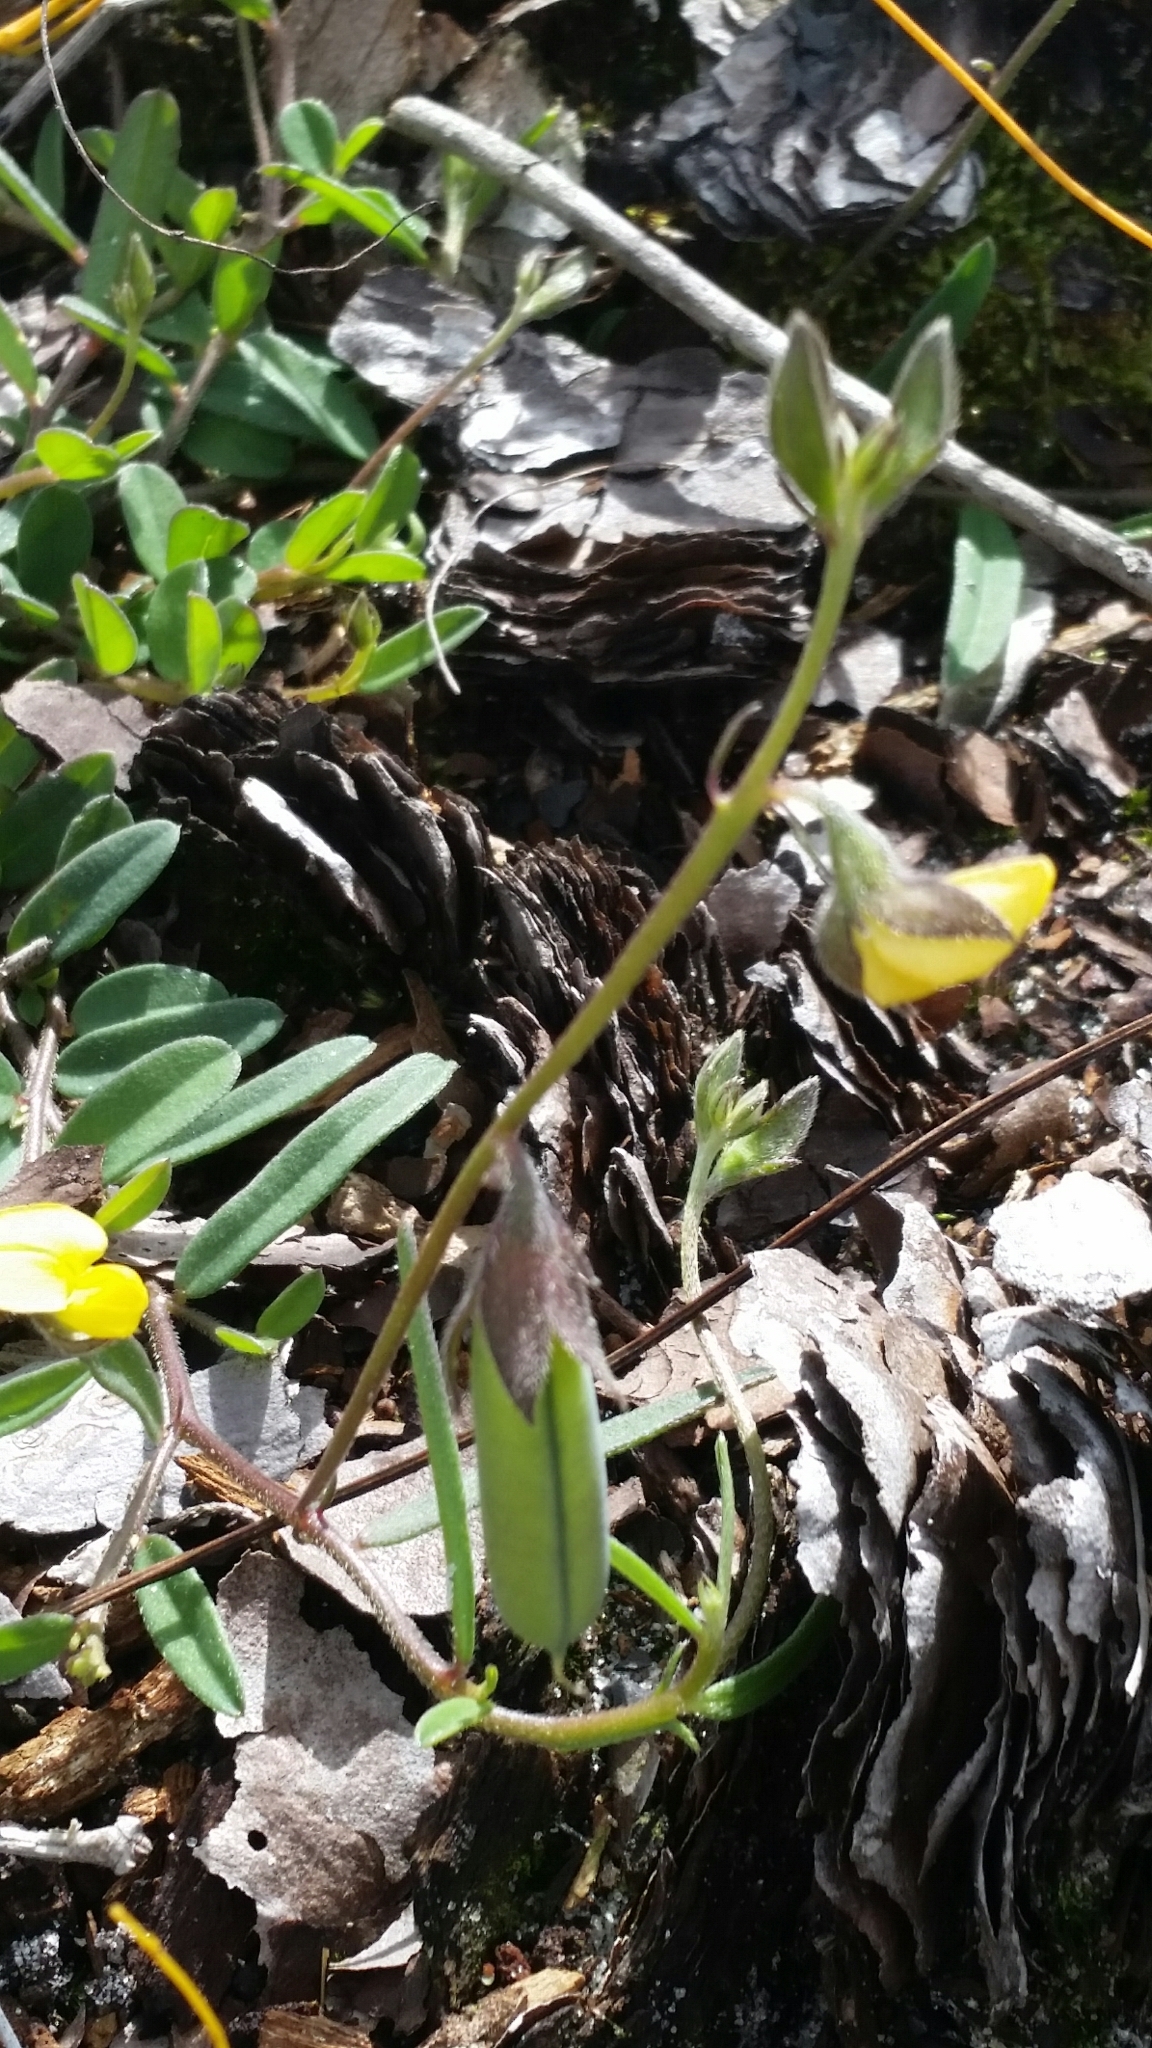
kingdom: Plantae
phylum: Tracheophyta
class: Magnoliopsida
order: Fabales
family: Fabaceae
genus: Crotalaria
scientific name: Crotalaria rotundifolia
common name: Prostrate rattlebox
